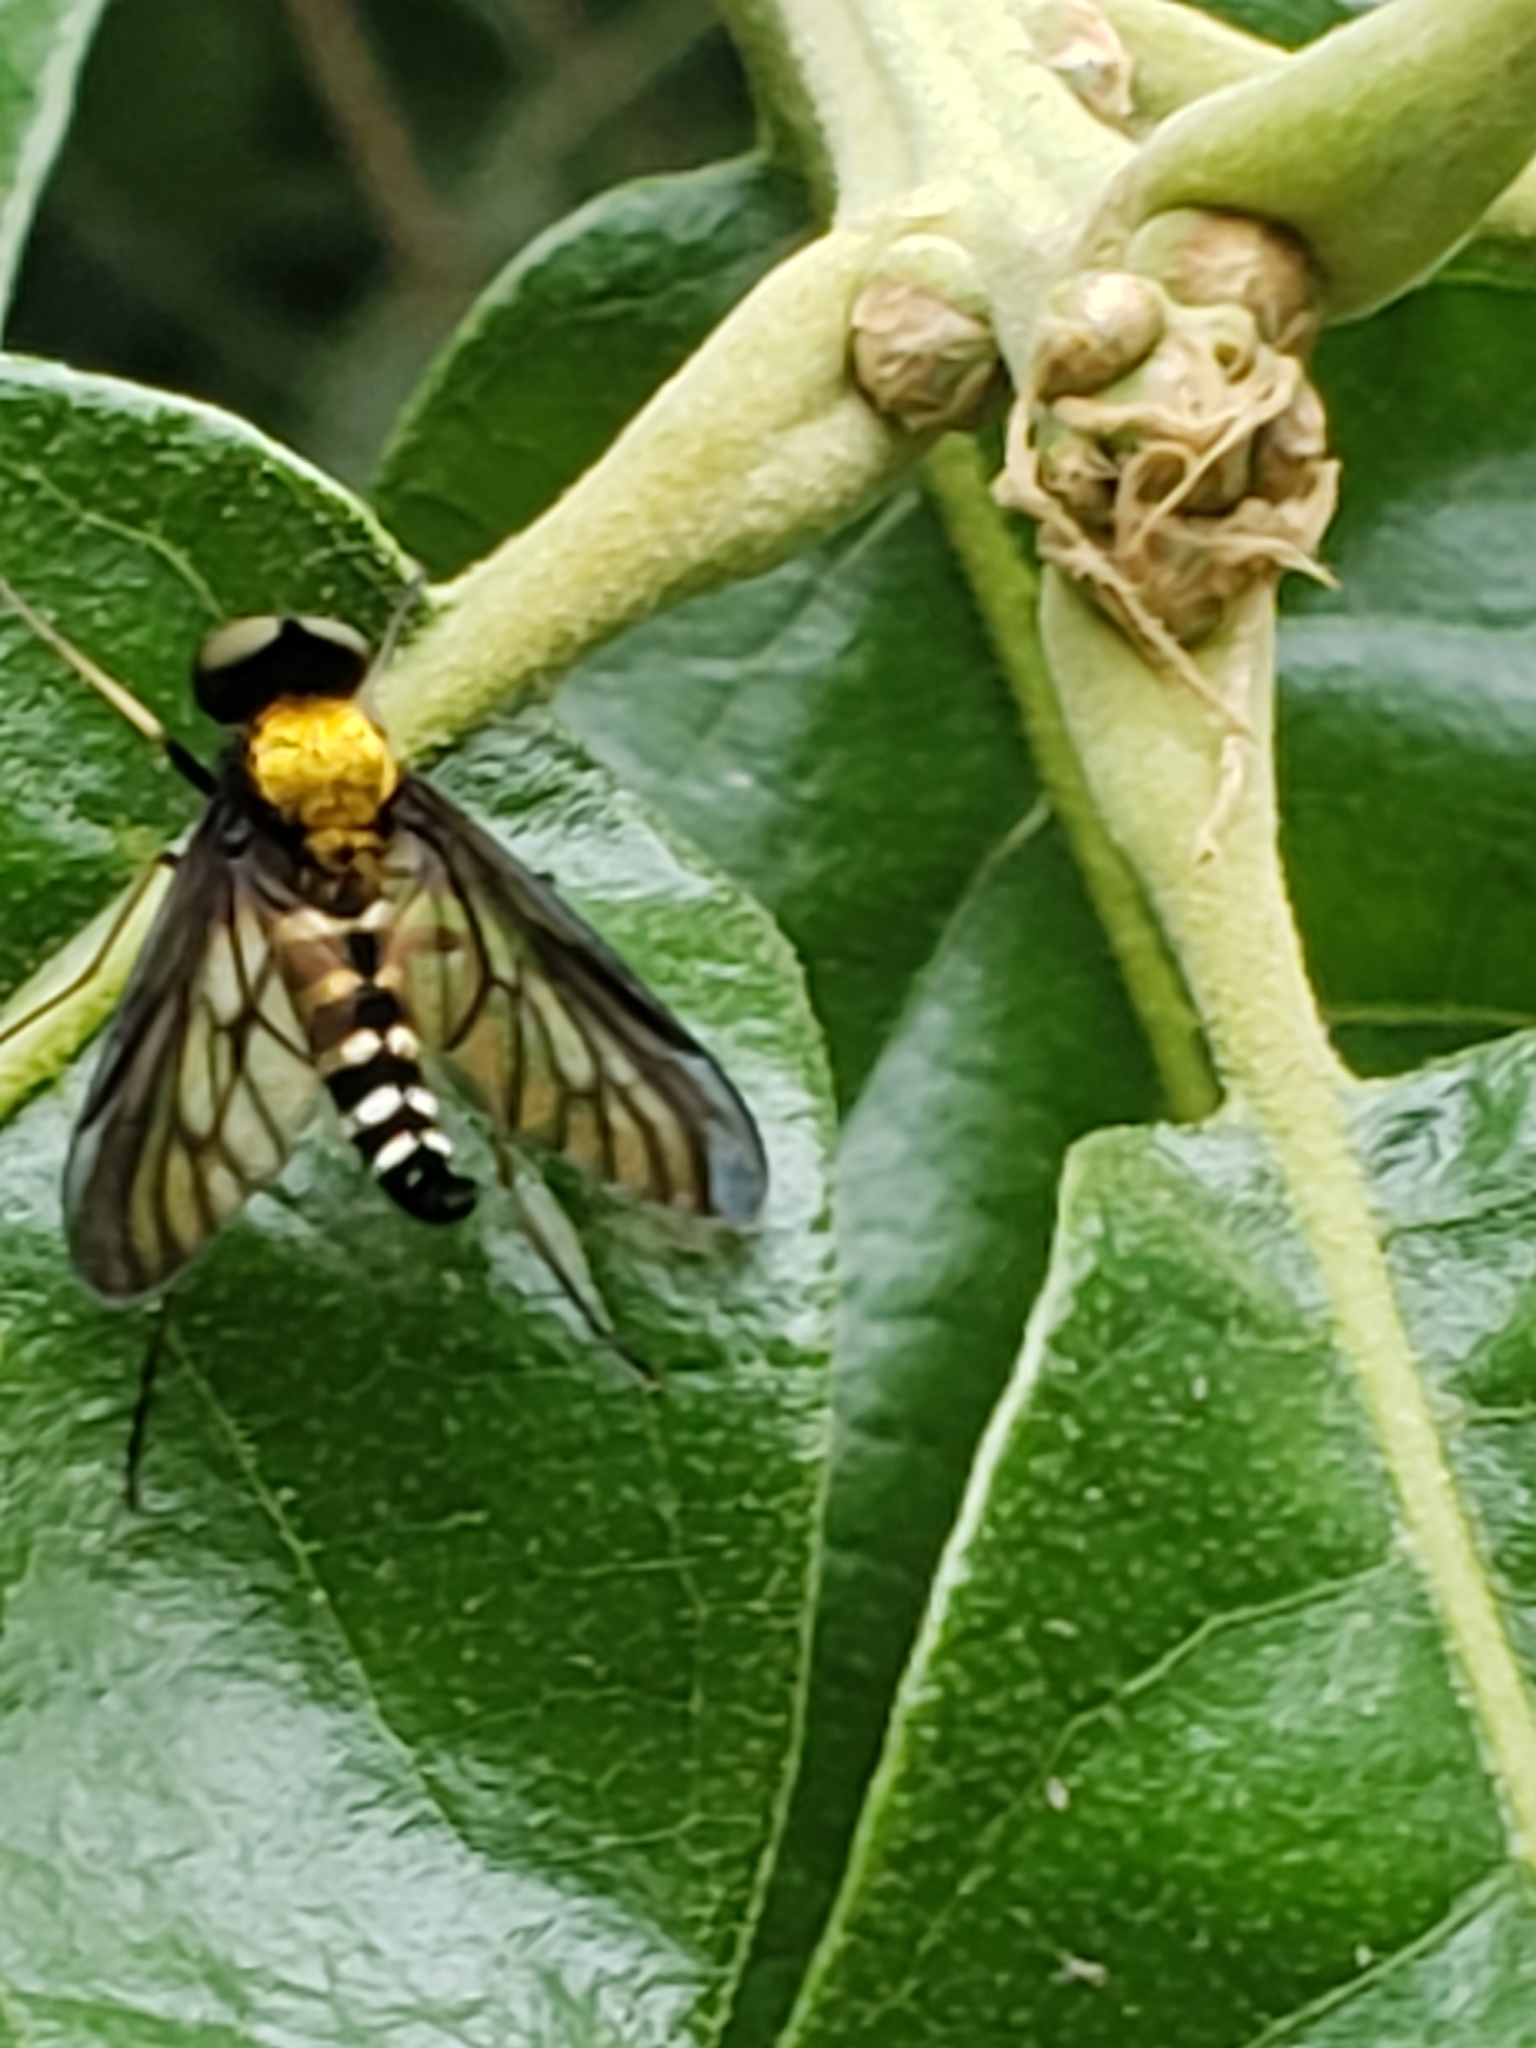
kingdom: Animalia
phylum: Arthropoda
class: Insecta
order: Diptera
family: Rhagionidae
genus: Chrysopilus
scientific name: Chrysopilus thoracicus
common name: Golden-backed snipe fly
